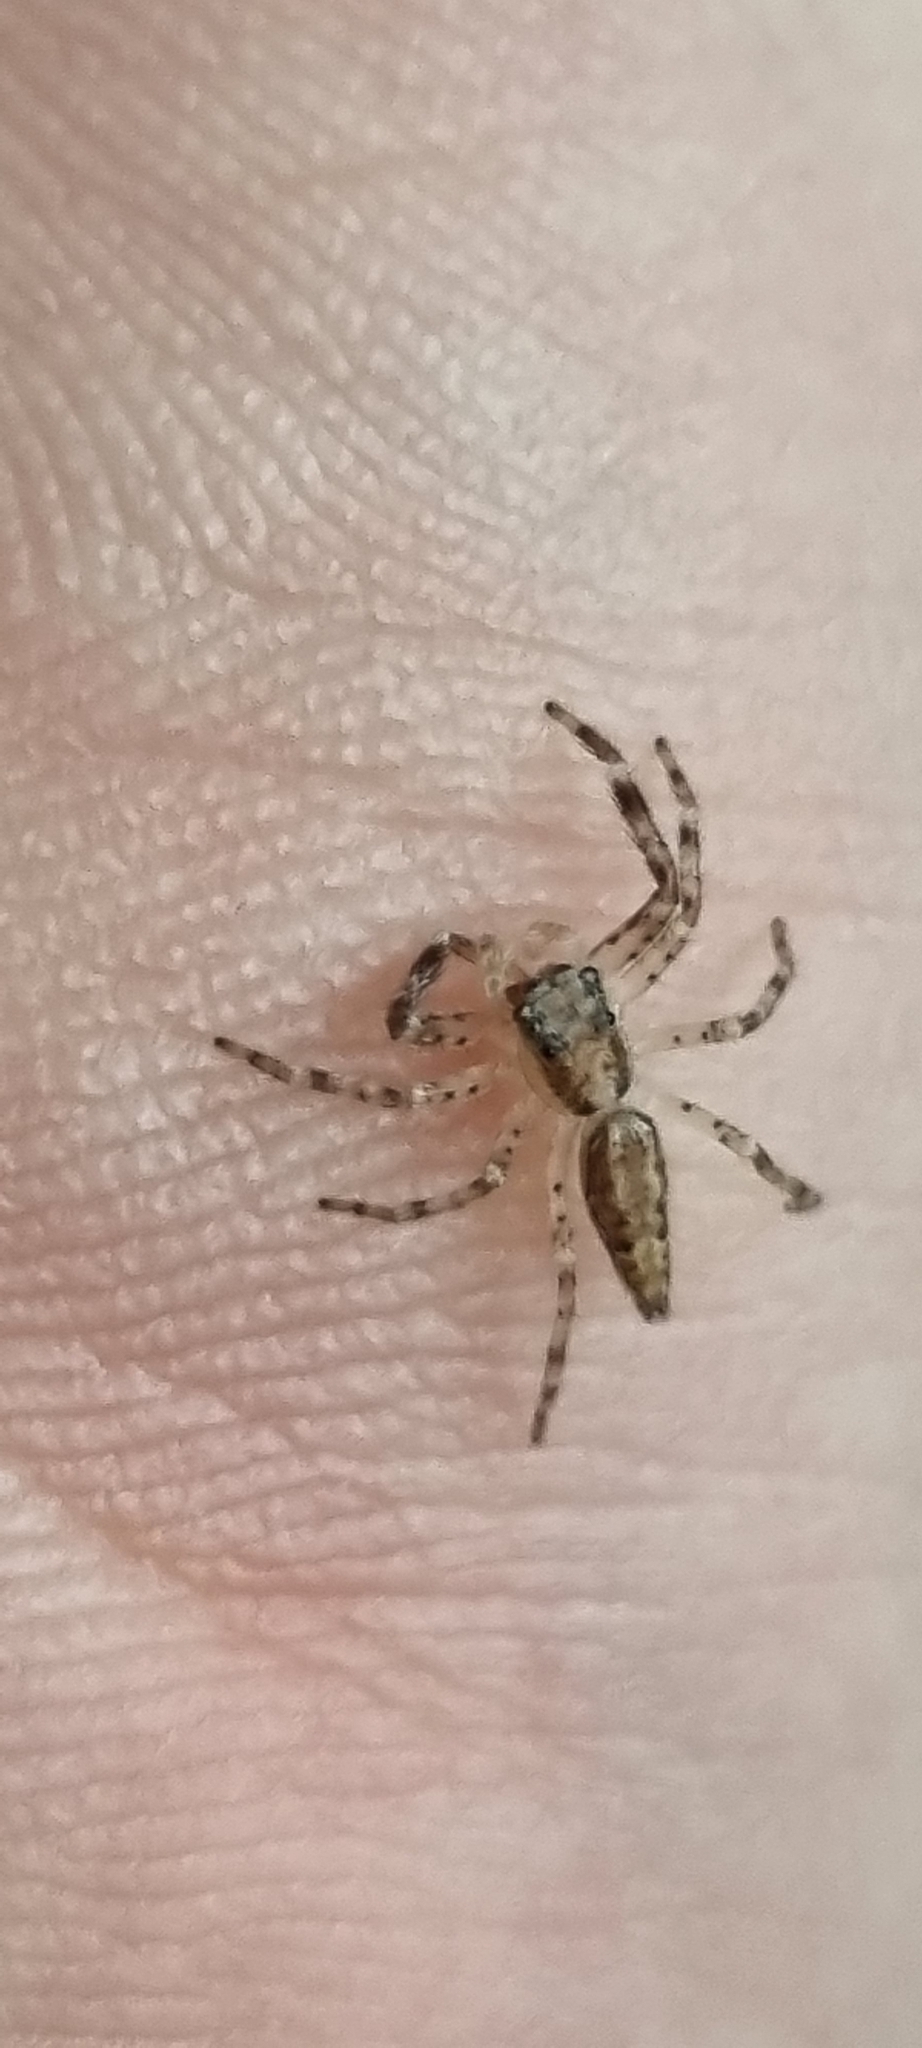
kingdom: Animalia
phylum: Arthropoda
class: Arachnida
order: Araneae
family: Salticidae
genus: Helpis
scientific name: Helpis minitabunda
